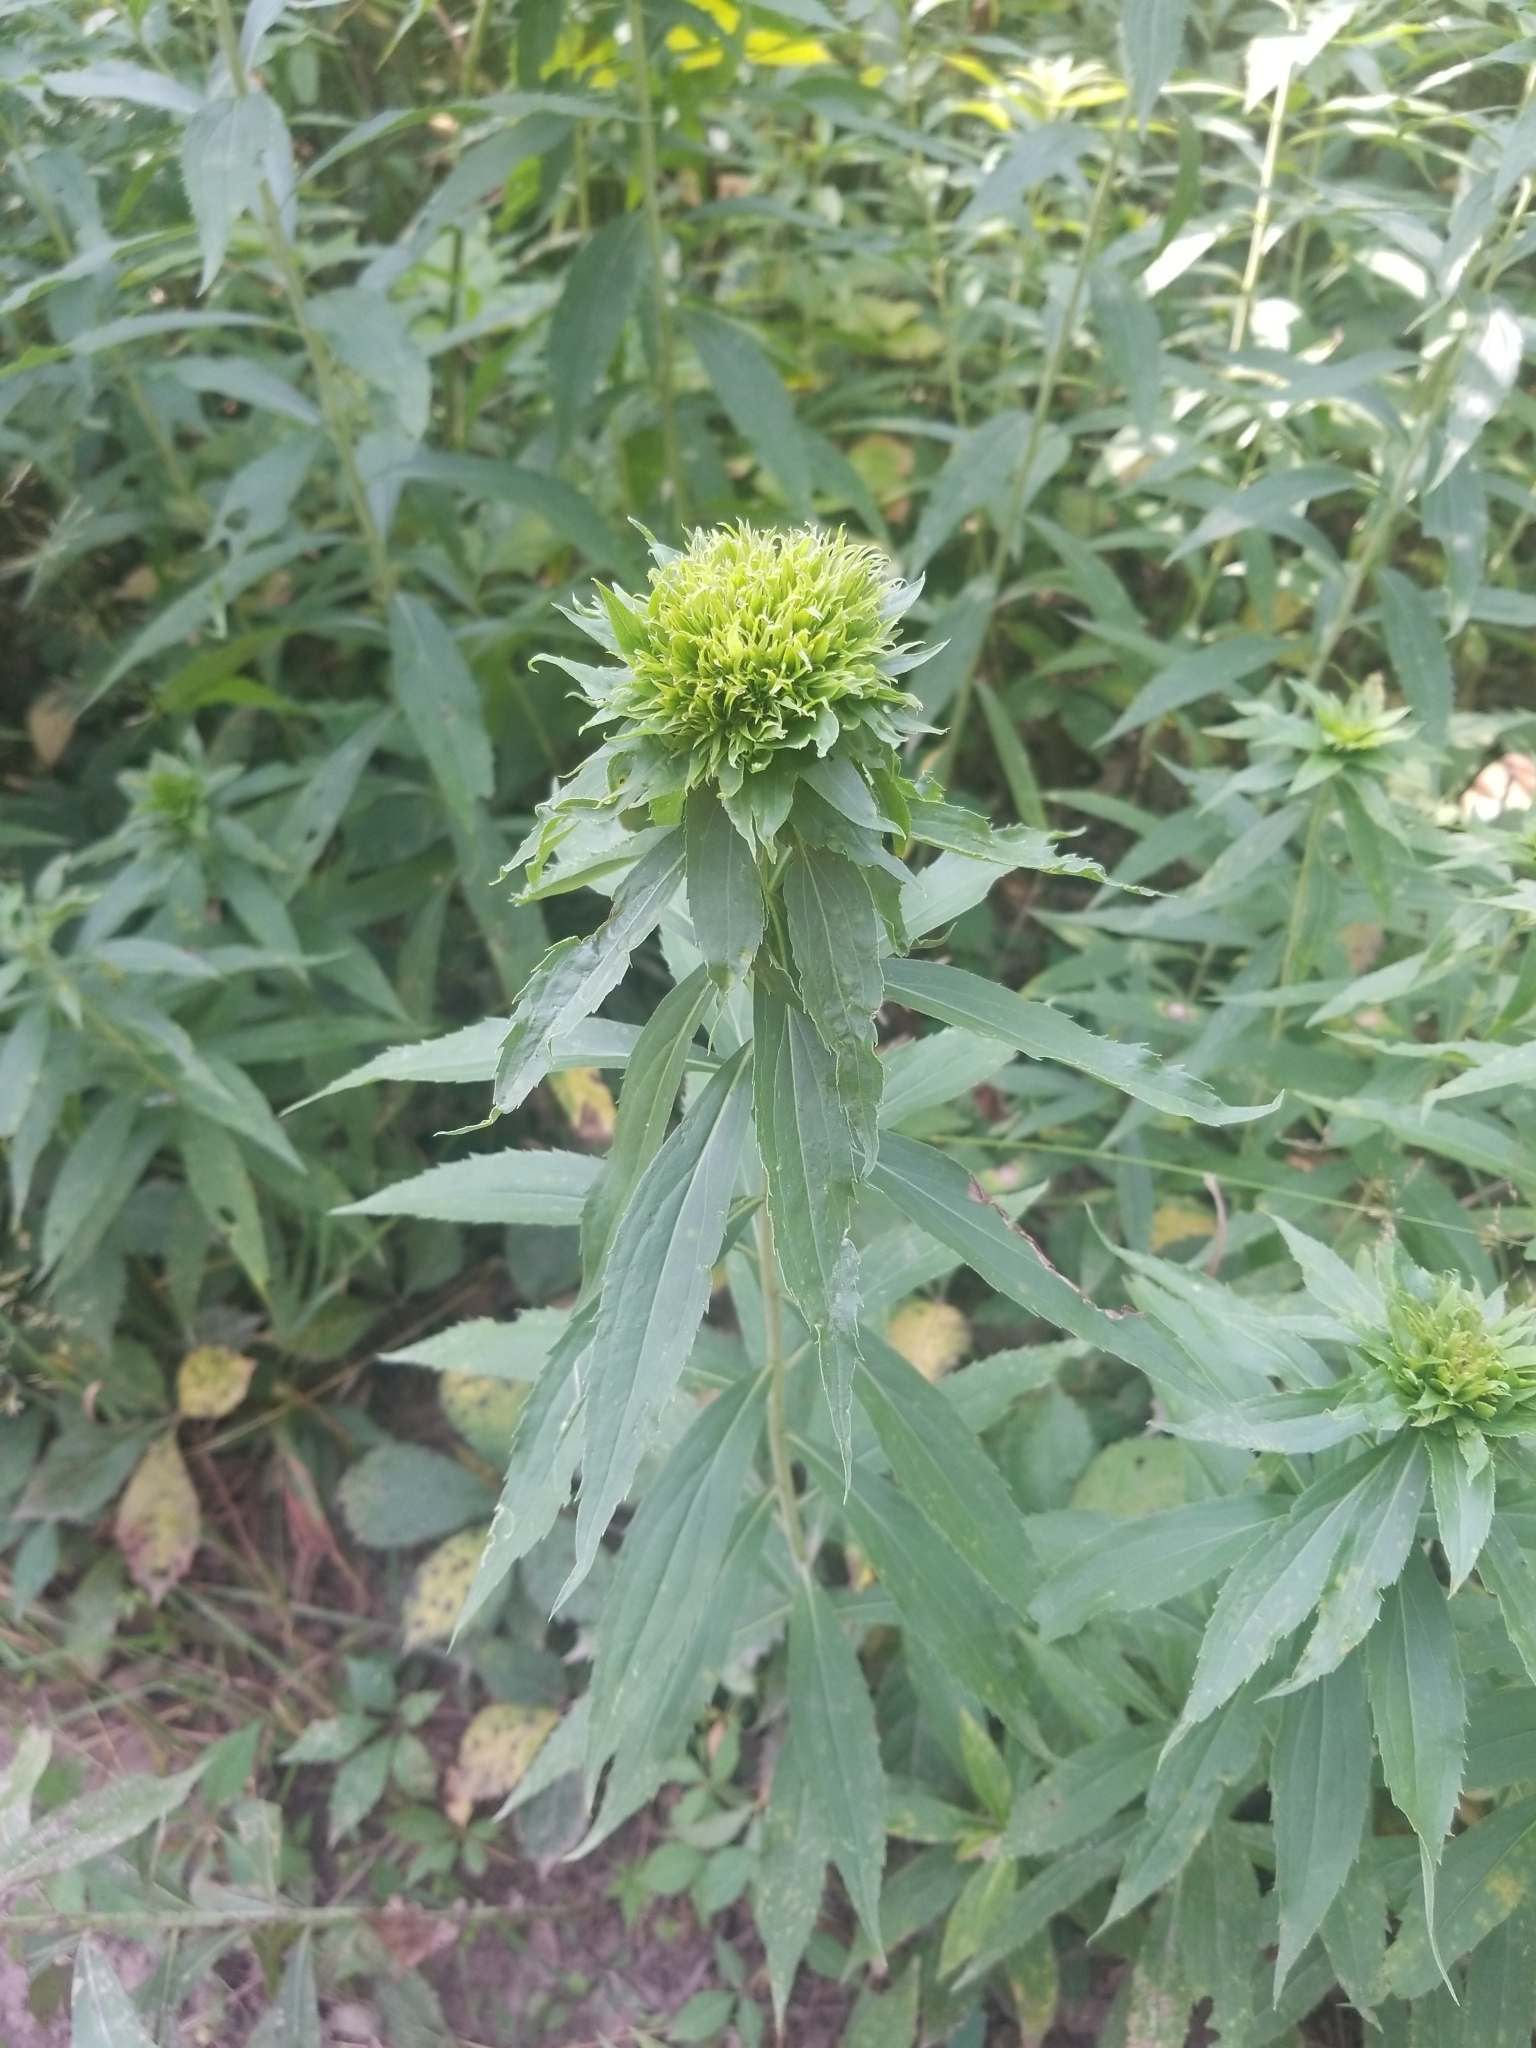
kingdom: Animalia
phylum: Arthropoda
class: Insecta
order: Diptera
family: Cecidomyiidae
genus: Rhopalomyia
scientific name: Rhopalomyia capitata
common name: Giant goldenrod bunch gall midge
